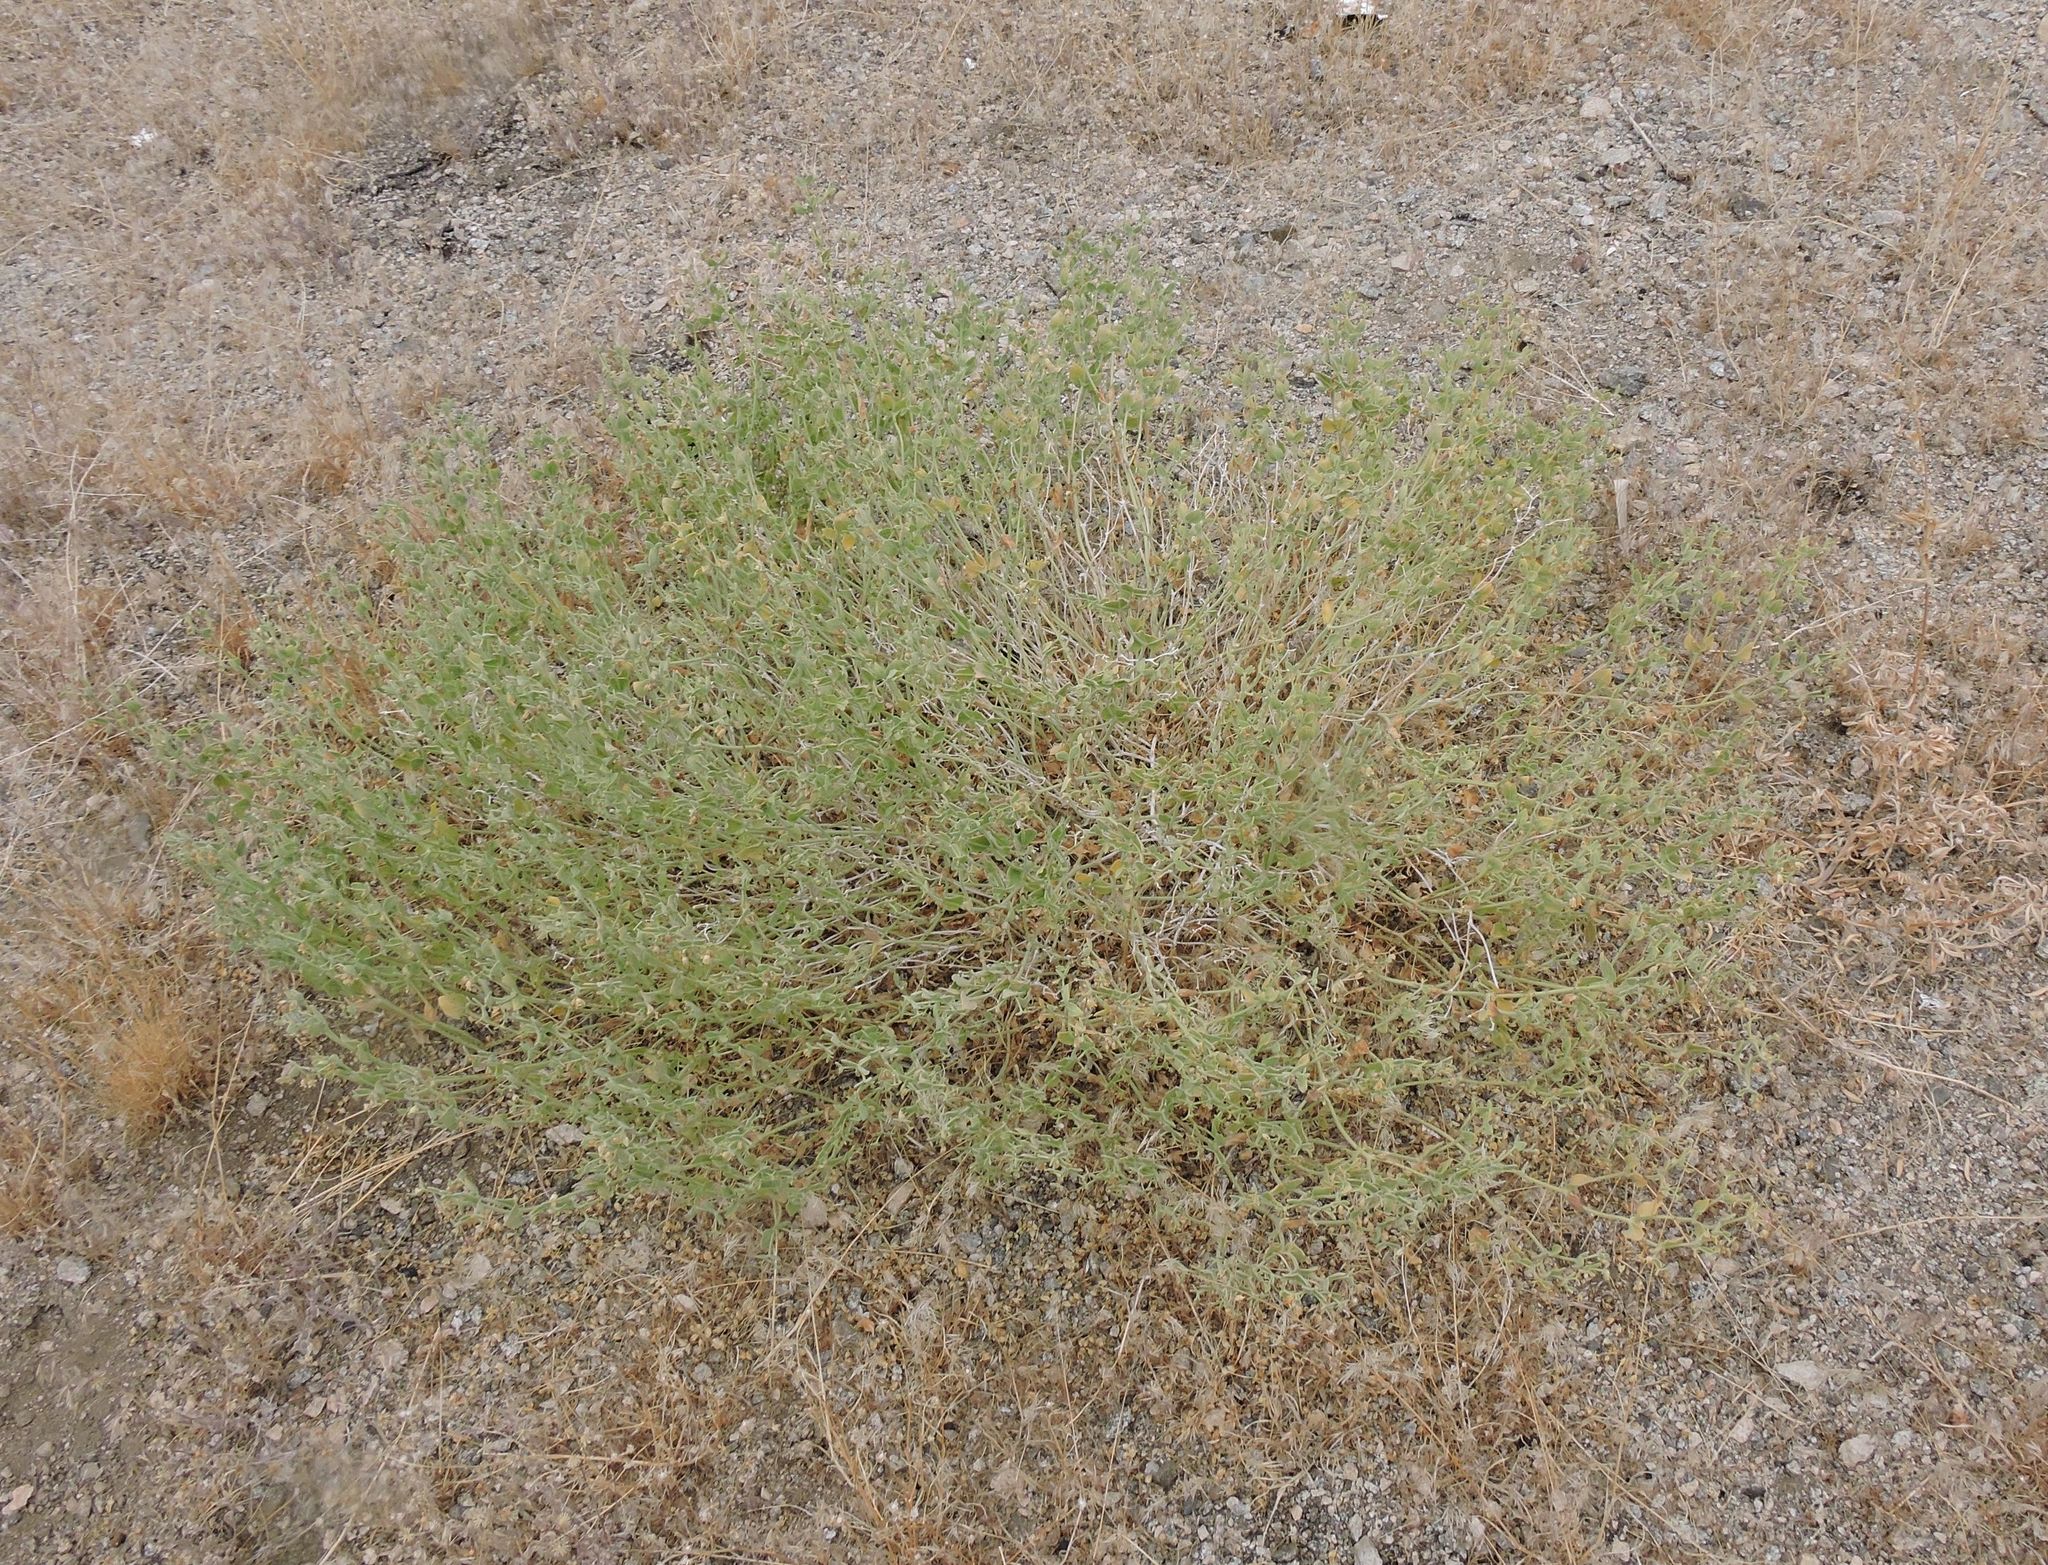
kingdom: Plantae
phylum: Tracheophyta
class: Magnoliopsida
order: Caryophyllales
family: Nyctaginaceae
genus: Mirabilis
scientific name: Mirabilis laevis
